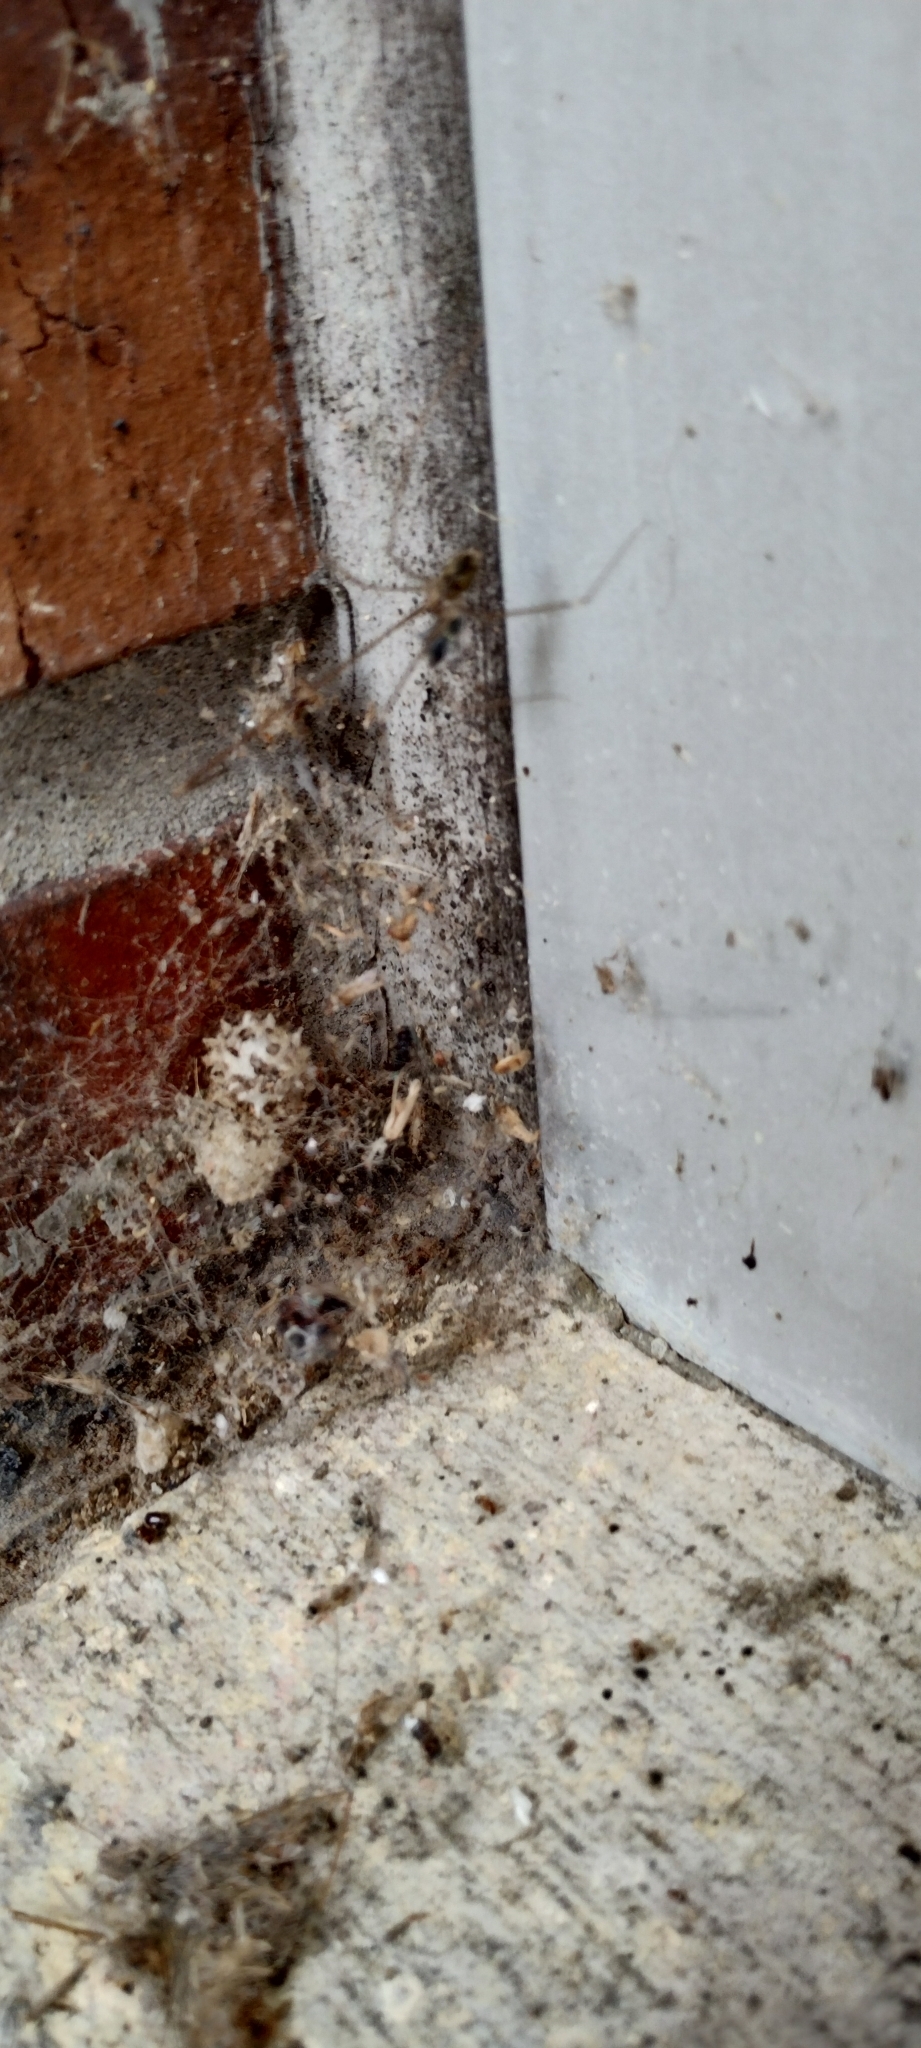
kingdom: Animalia
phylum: Arthropoda
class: Arachnida
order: Araneae
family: Theridiidae
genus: Latrodectus
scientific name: Latrodectus geometricus
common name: Brown widow spider
